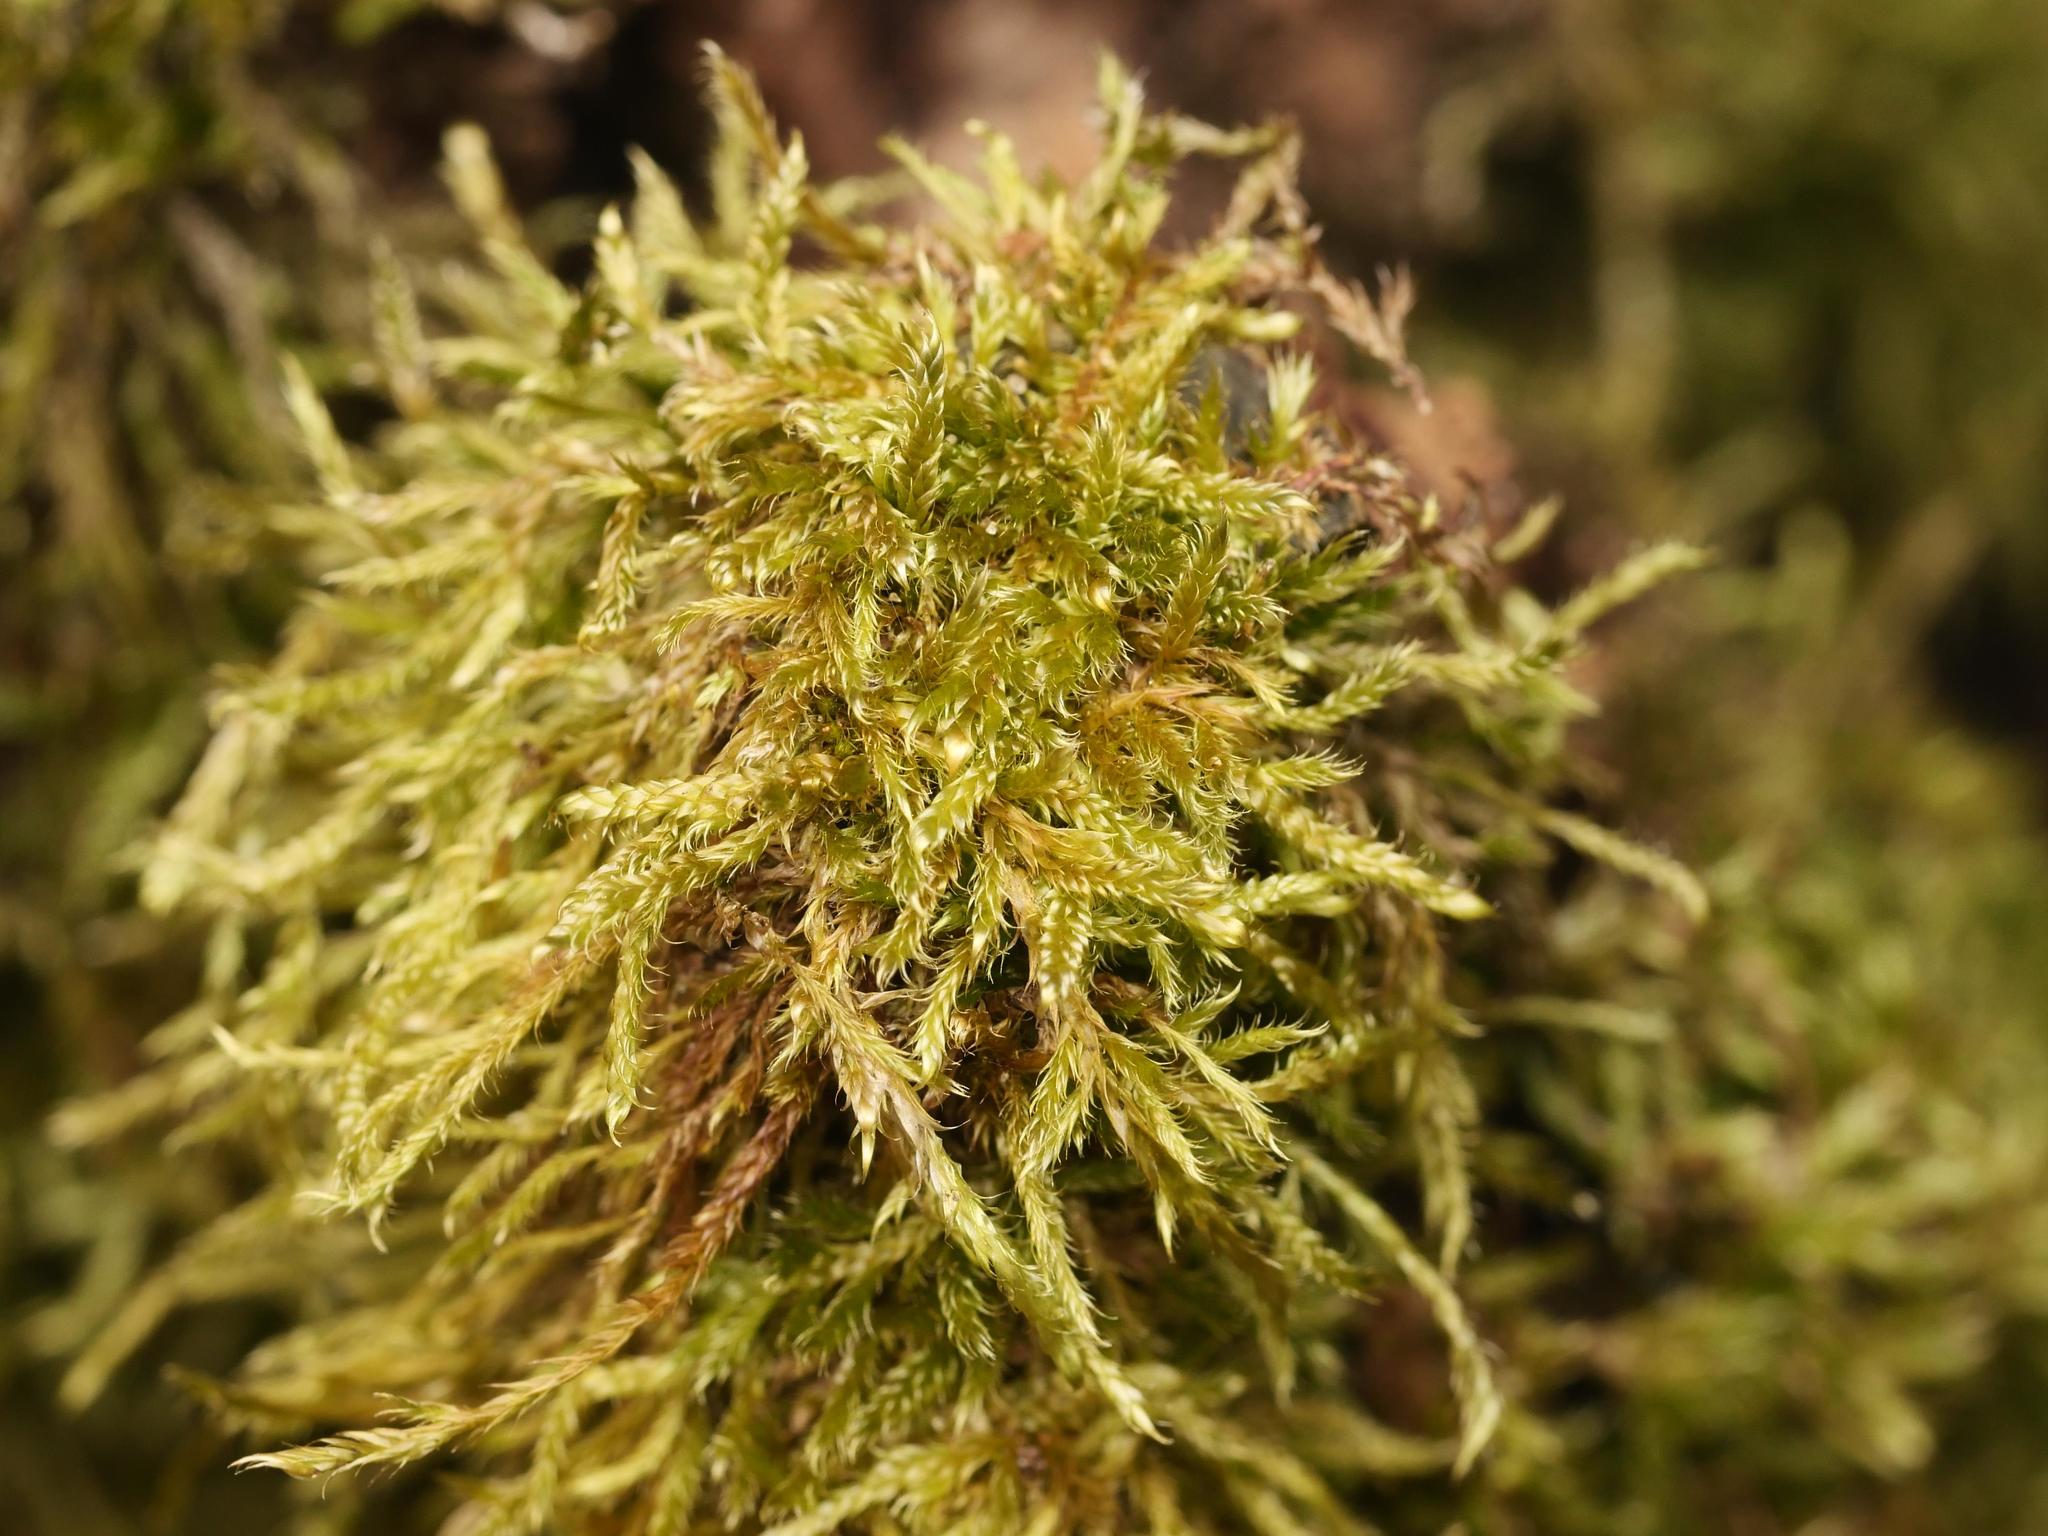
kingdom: Plantae
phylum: Bryophyta
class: Bryopsida
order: Hypnales
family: Hypnaceae
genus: Hypnum
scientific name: Hypnum cupressiforme
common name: Cypress-leaved plait-moss
